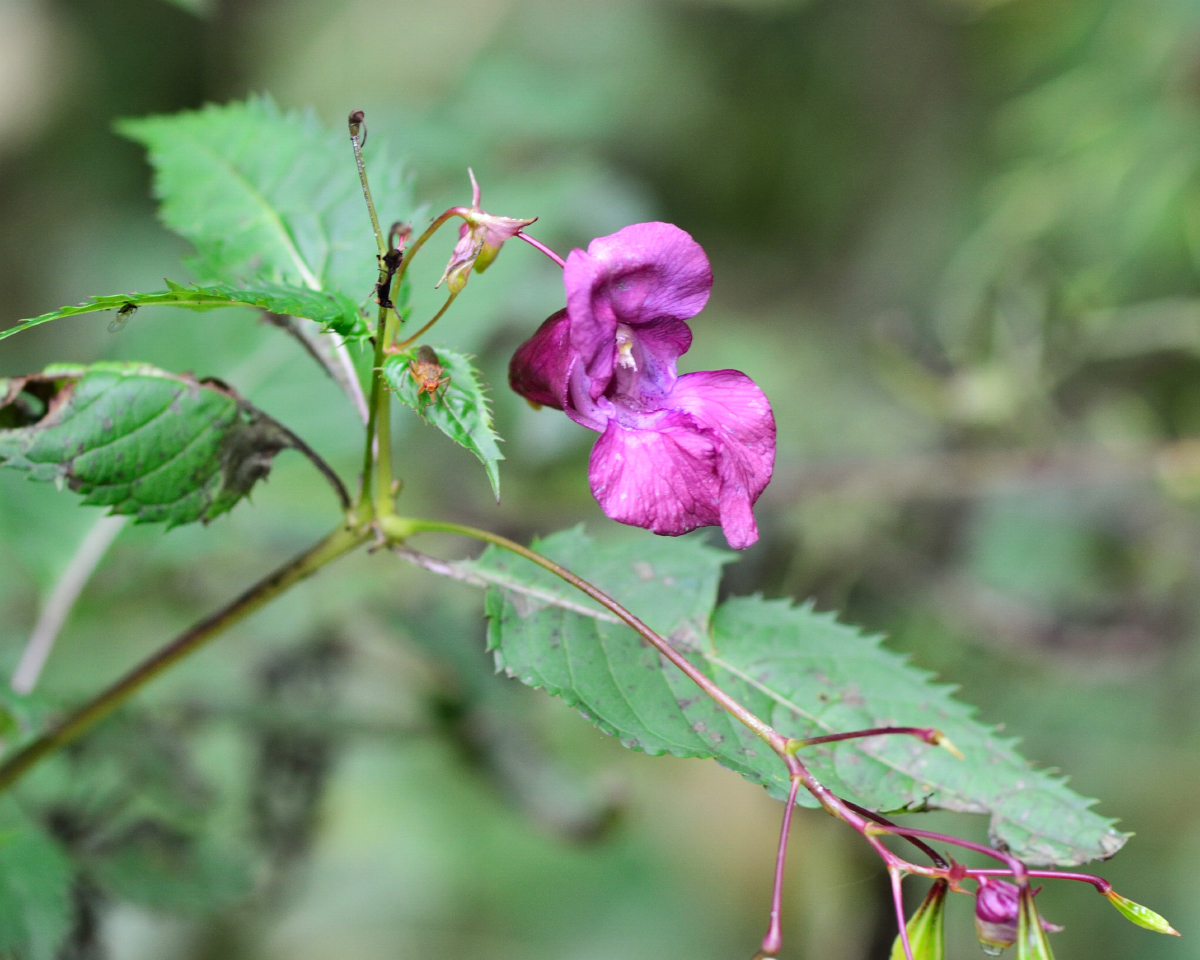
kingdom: Plantae
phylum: Tracheophyta
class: Magnoliopsida
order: Ericales
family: Balsaminaceae
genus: Impatiens
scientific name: Impatiens glandulifera
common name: Himalayan balsam
